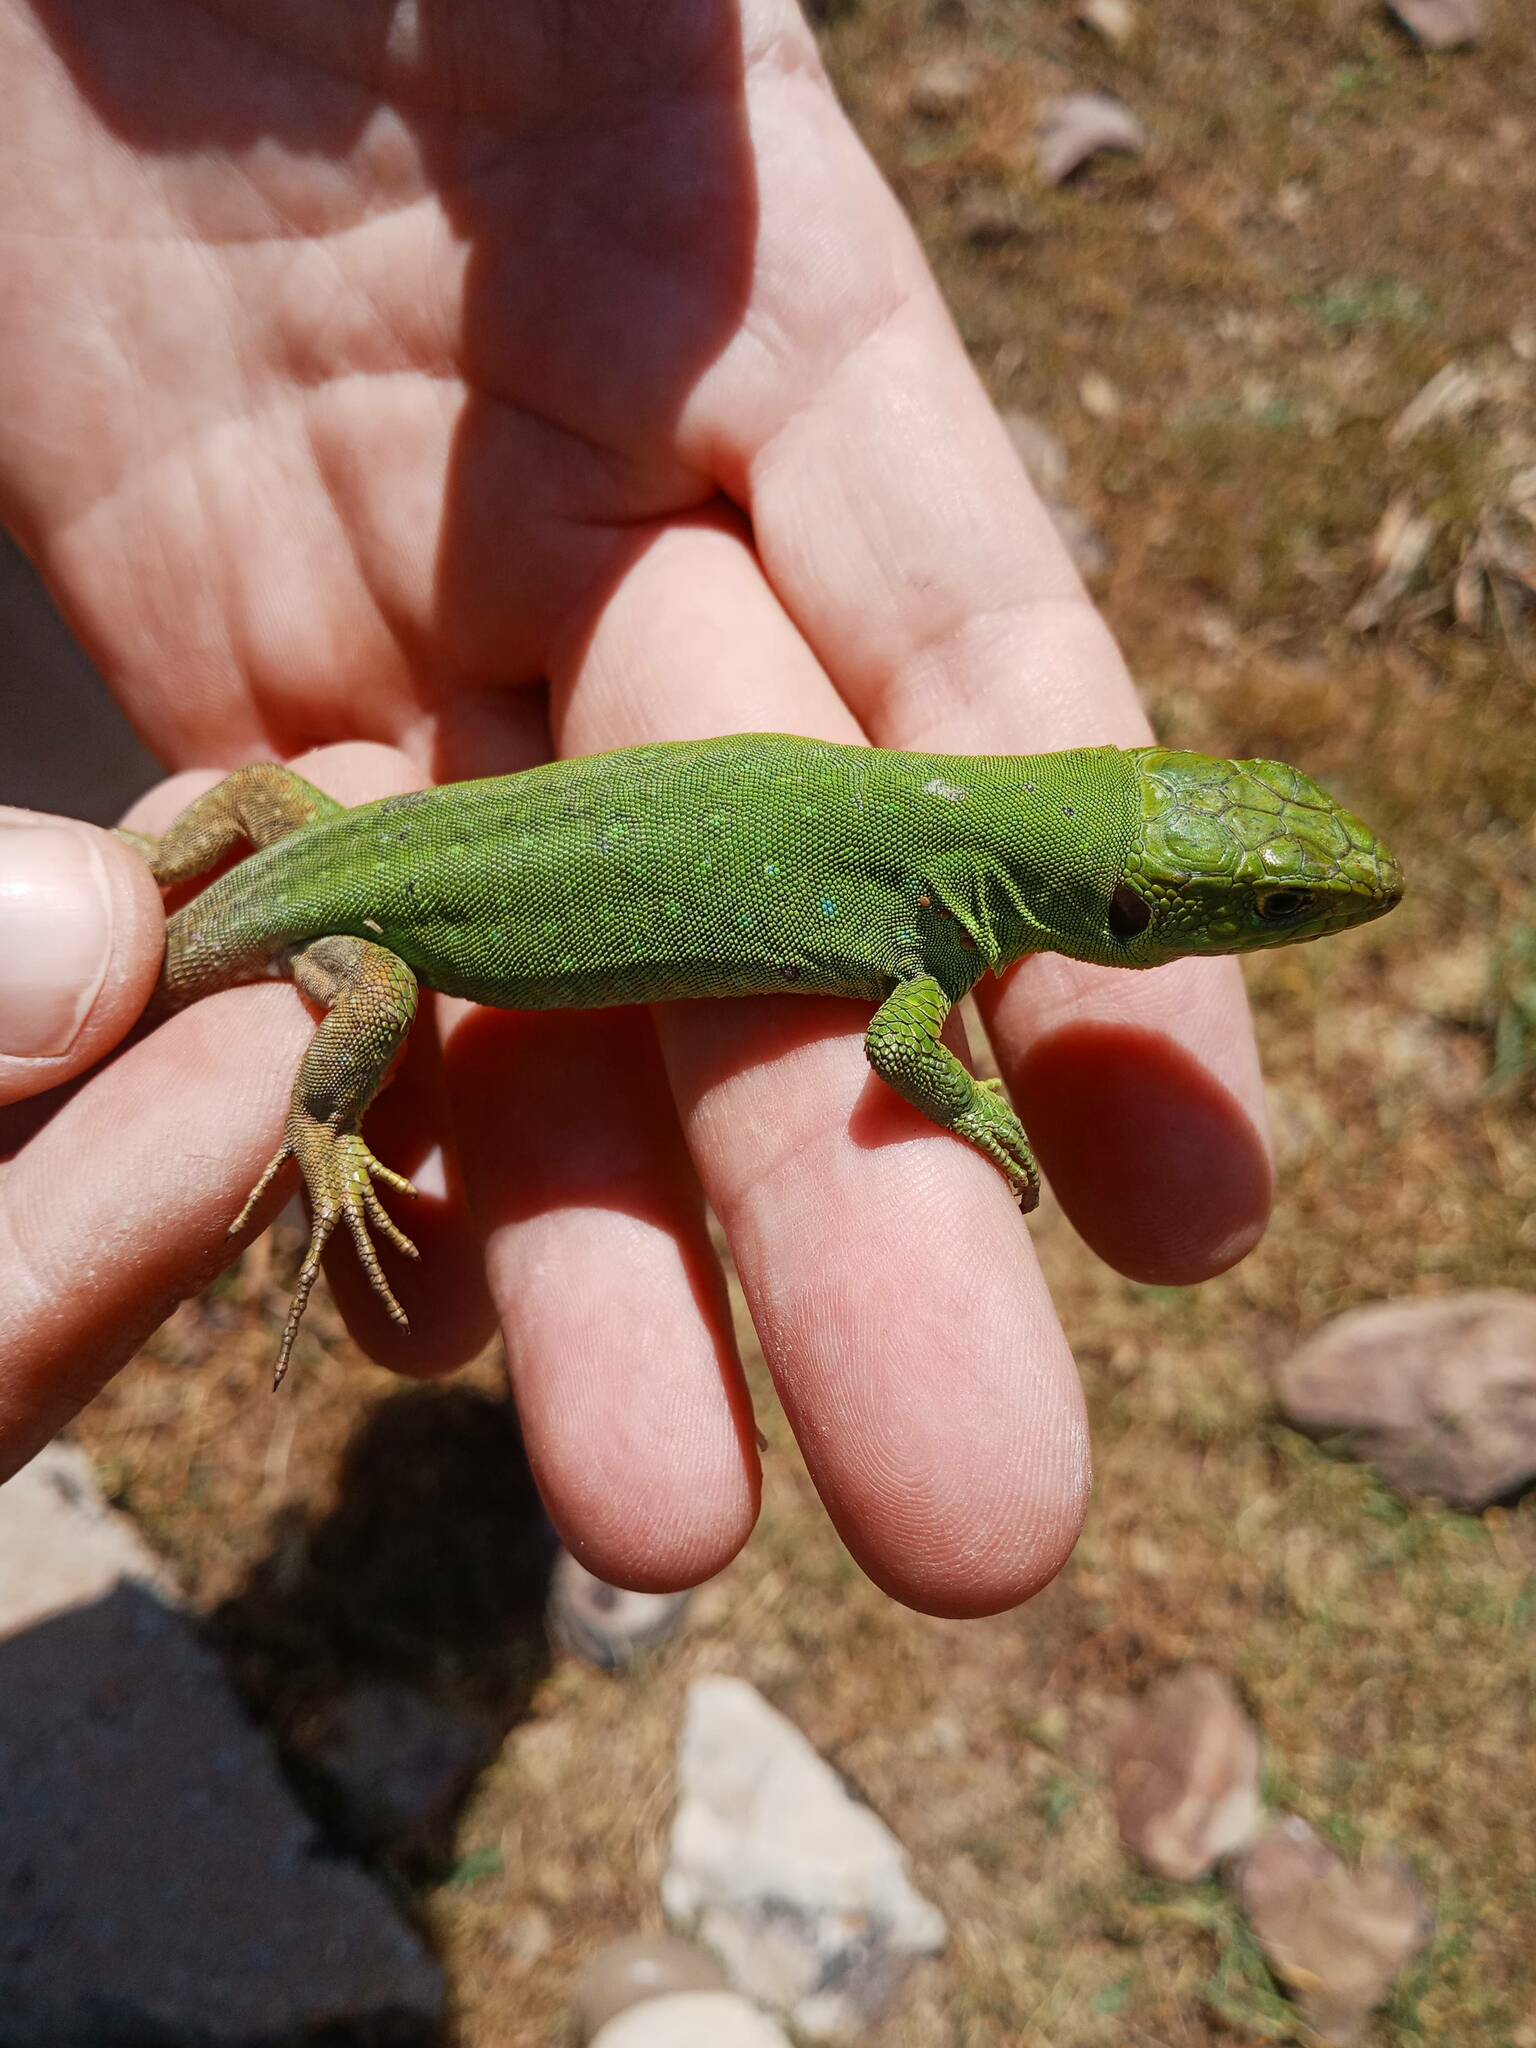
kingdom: Animalia
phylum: Chordata
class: Squamata
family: Lacertidae
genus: Timon
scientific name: Timon pater
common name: North african ocellated lizard
